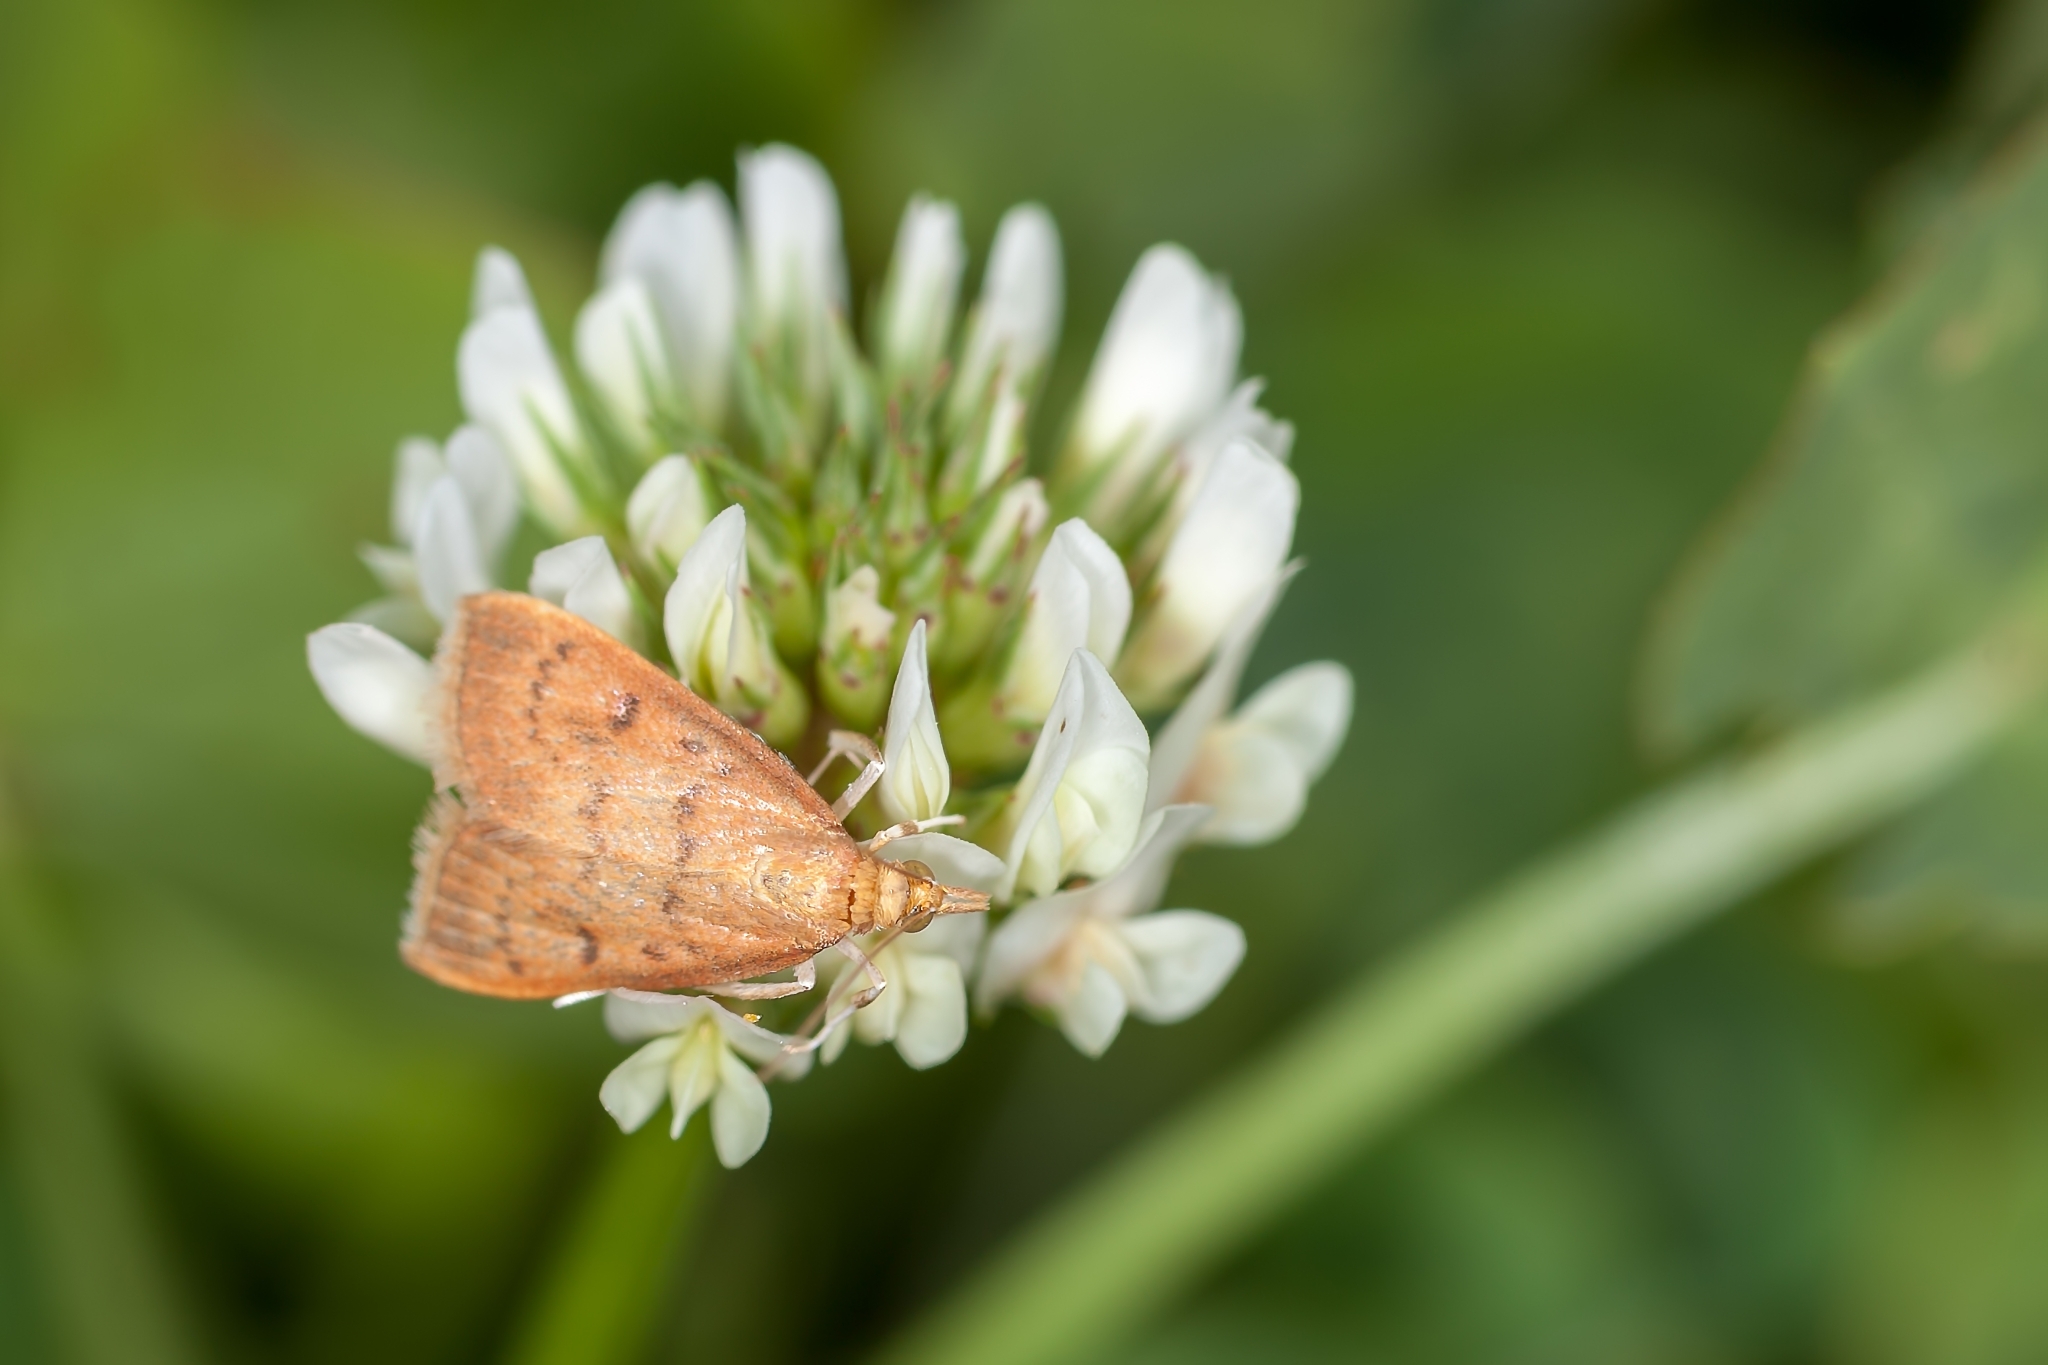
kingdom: Animalia
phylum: Arthropoda
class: Insecta
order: Lepidoptera
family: Crambidae
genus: Oenobotys
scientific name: Oenobotys vinotinctalis
